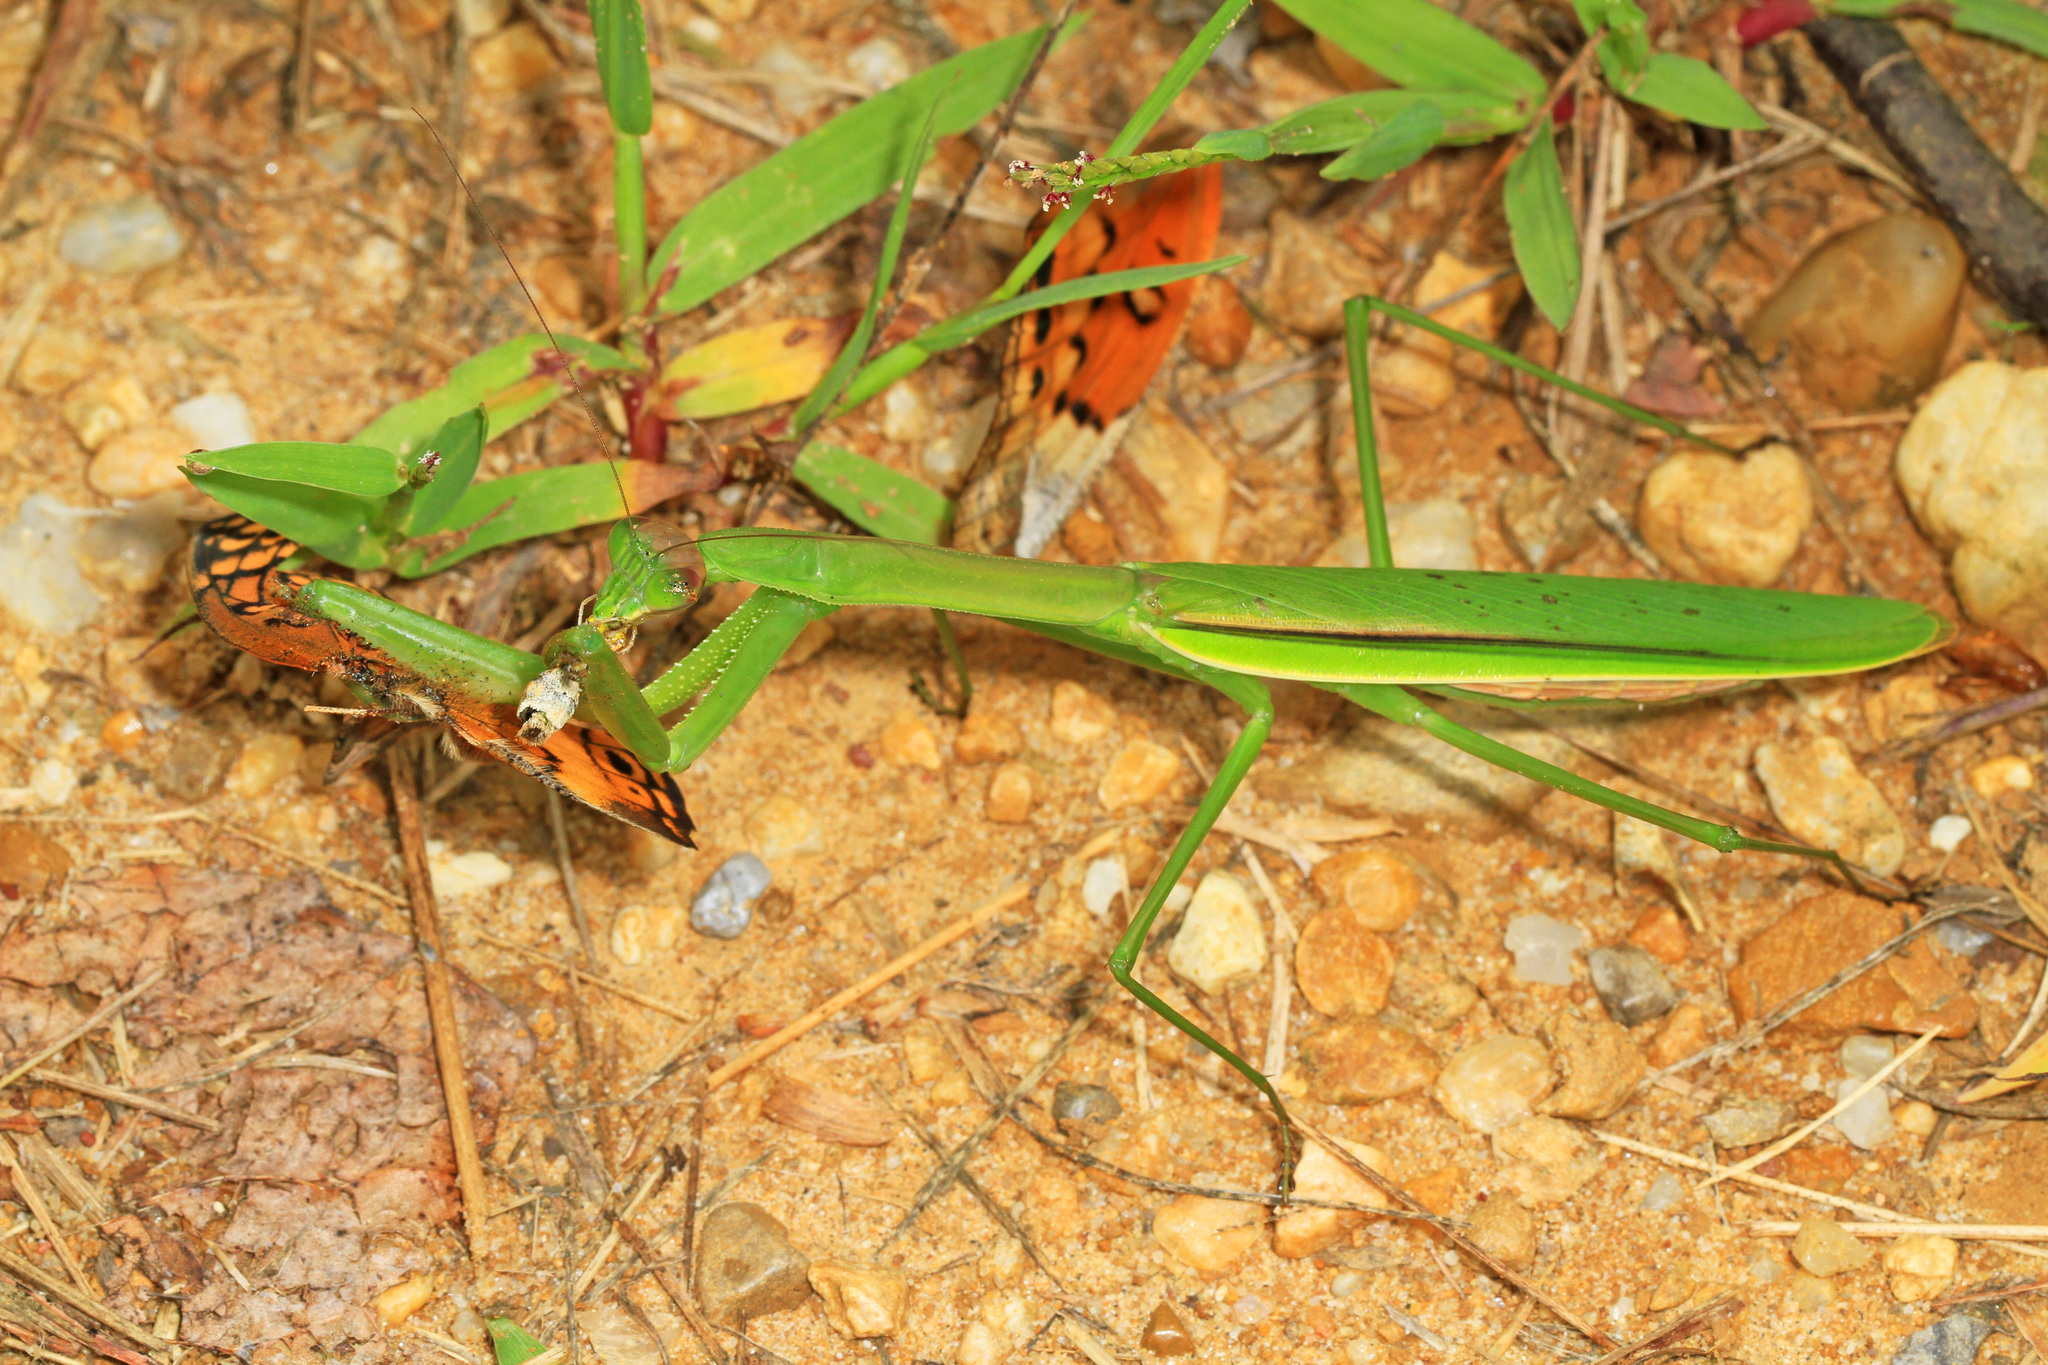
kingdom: Animalia
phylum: Arthropoda
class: Insecta
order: Mantodea
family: Mantidae
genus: Tenodera
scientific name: Tenodera angustipennis
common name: Asian mantis
